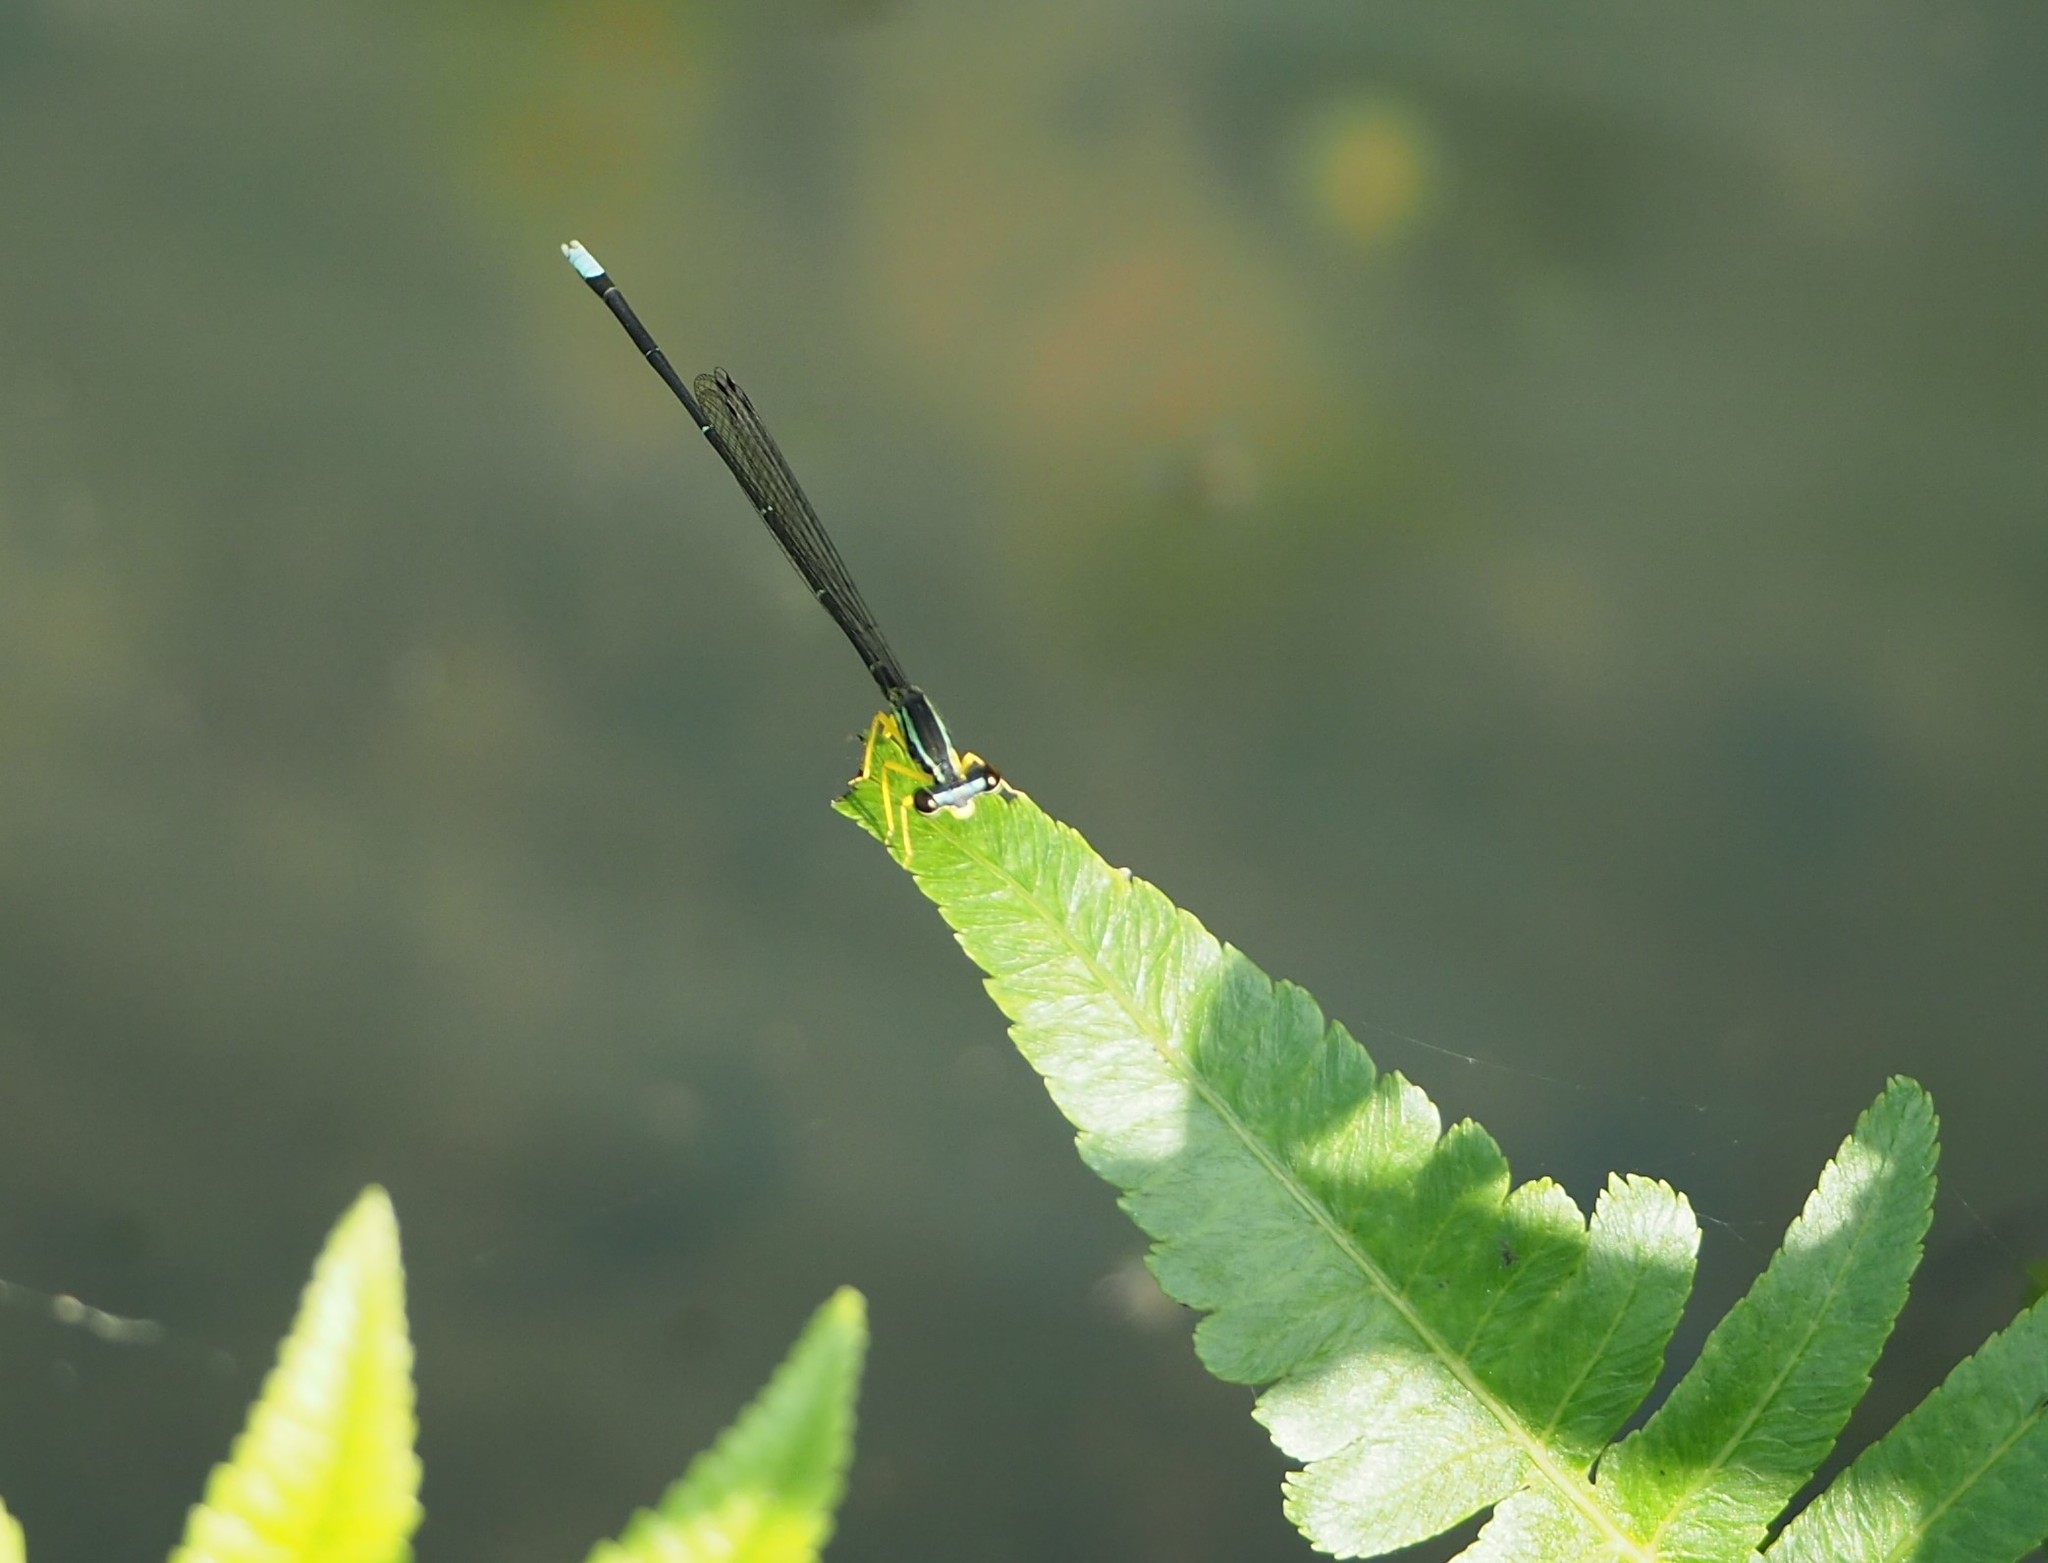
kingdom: Animalia
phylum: Arthropoda
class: Insecta
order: Odonata
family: Platycnemididae
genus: Copera
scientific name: Copera marginipes
